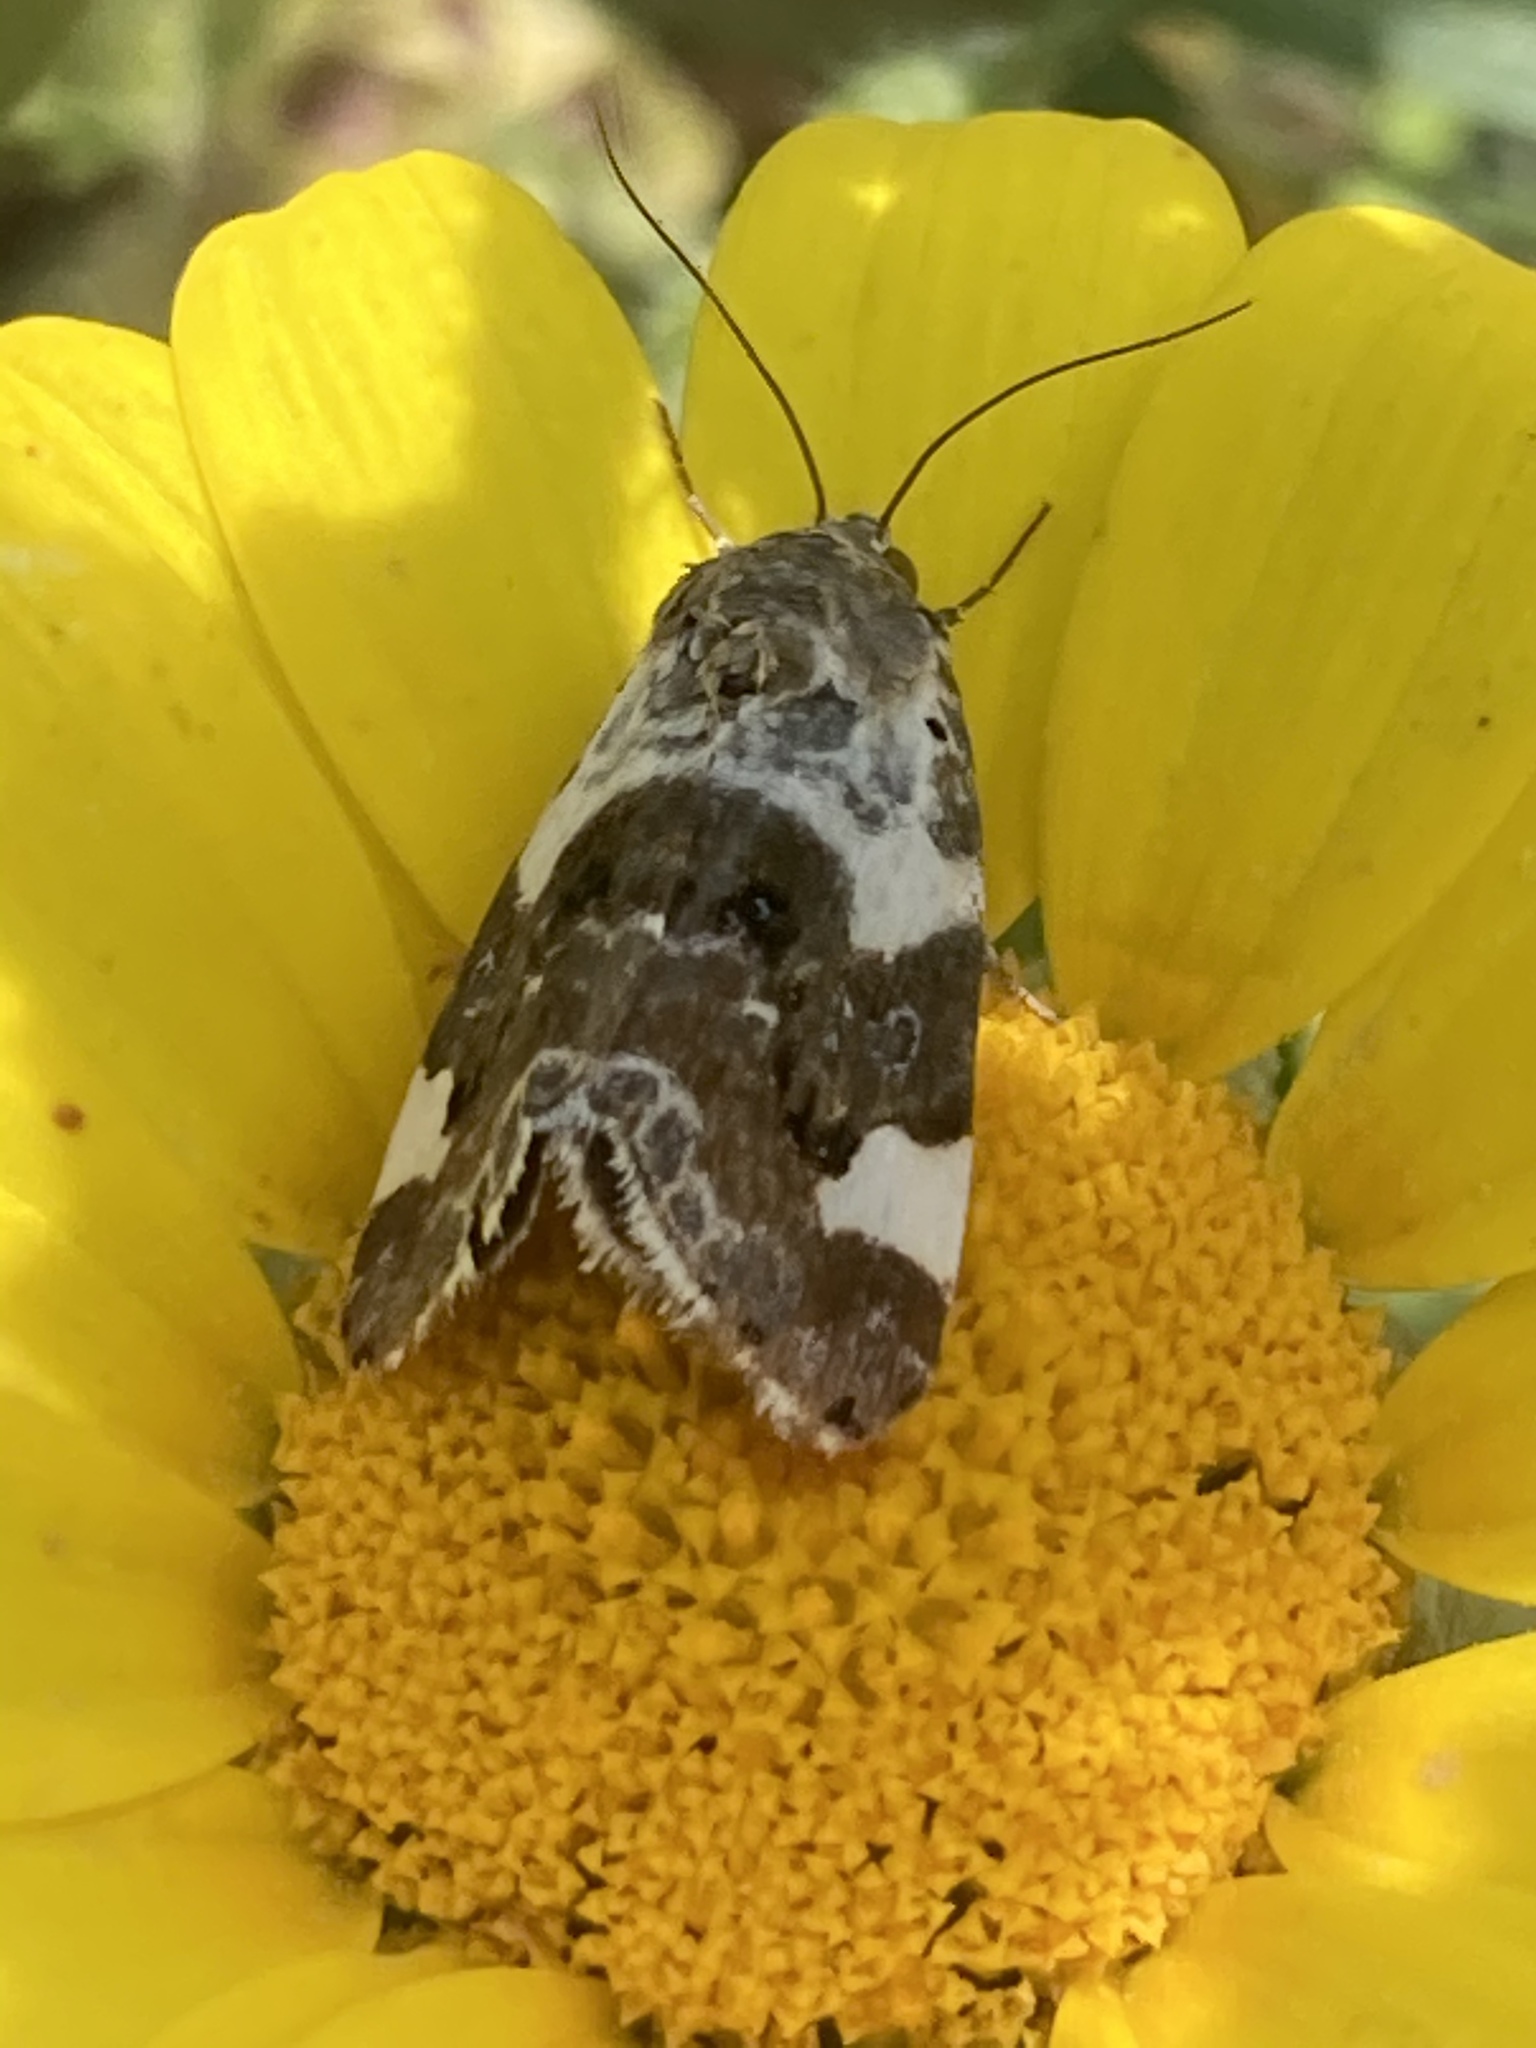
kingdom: Animalia
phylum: Arthropoda
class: Insecta
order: Lepidoptera
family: Noctuidae
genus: Acontia
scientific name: Acontia lucida
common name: Pale shoulder
